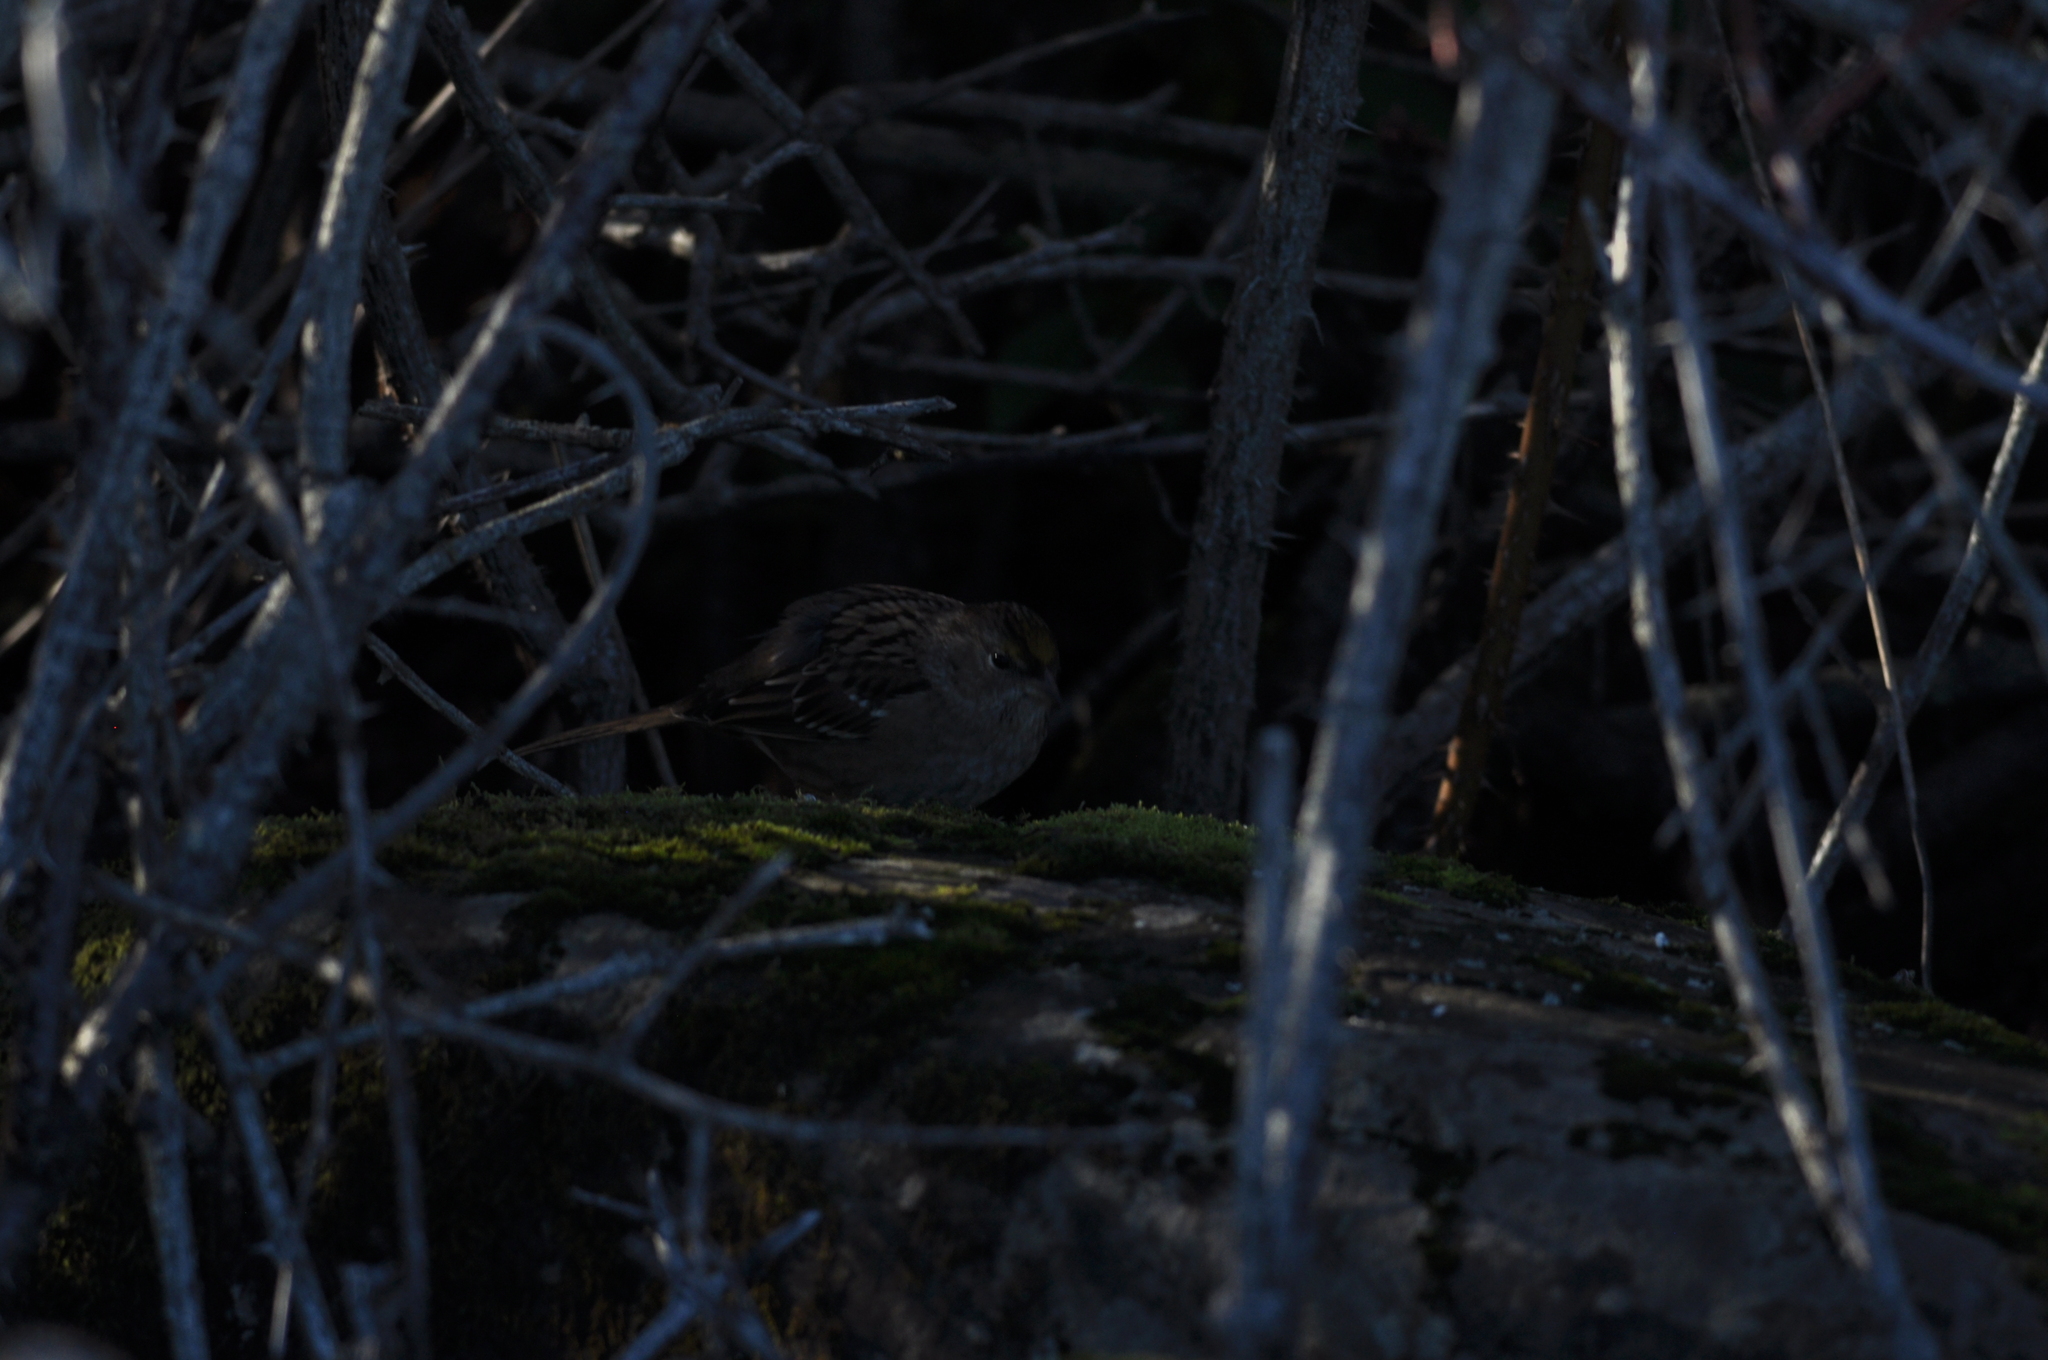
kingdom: Animalia
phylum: Chordata
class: Aves
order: Passeriformes
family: Passerellidae
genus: Zonotrichia
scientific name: Zonotrichia atricapilla
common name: Golden-crowned sparrow
